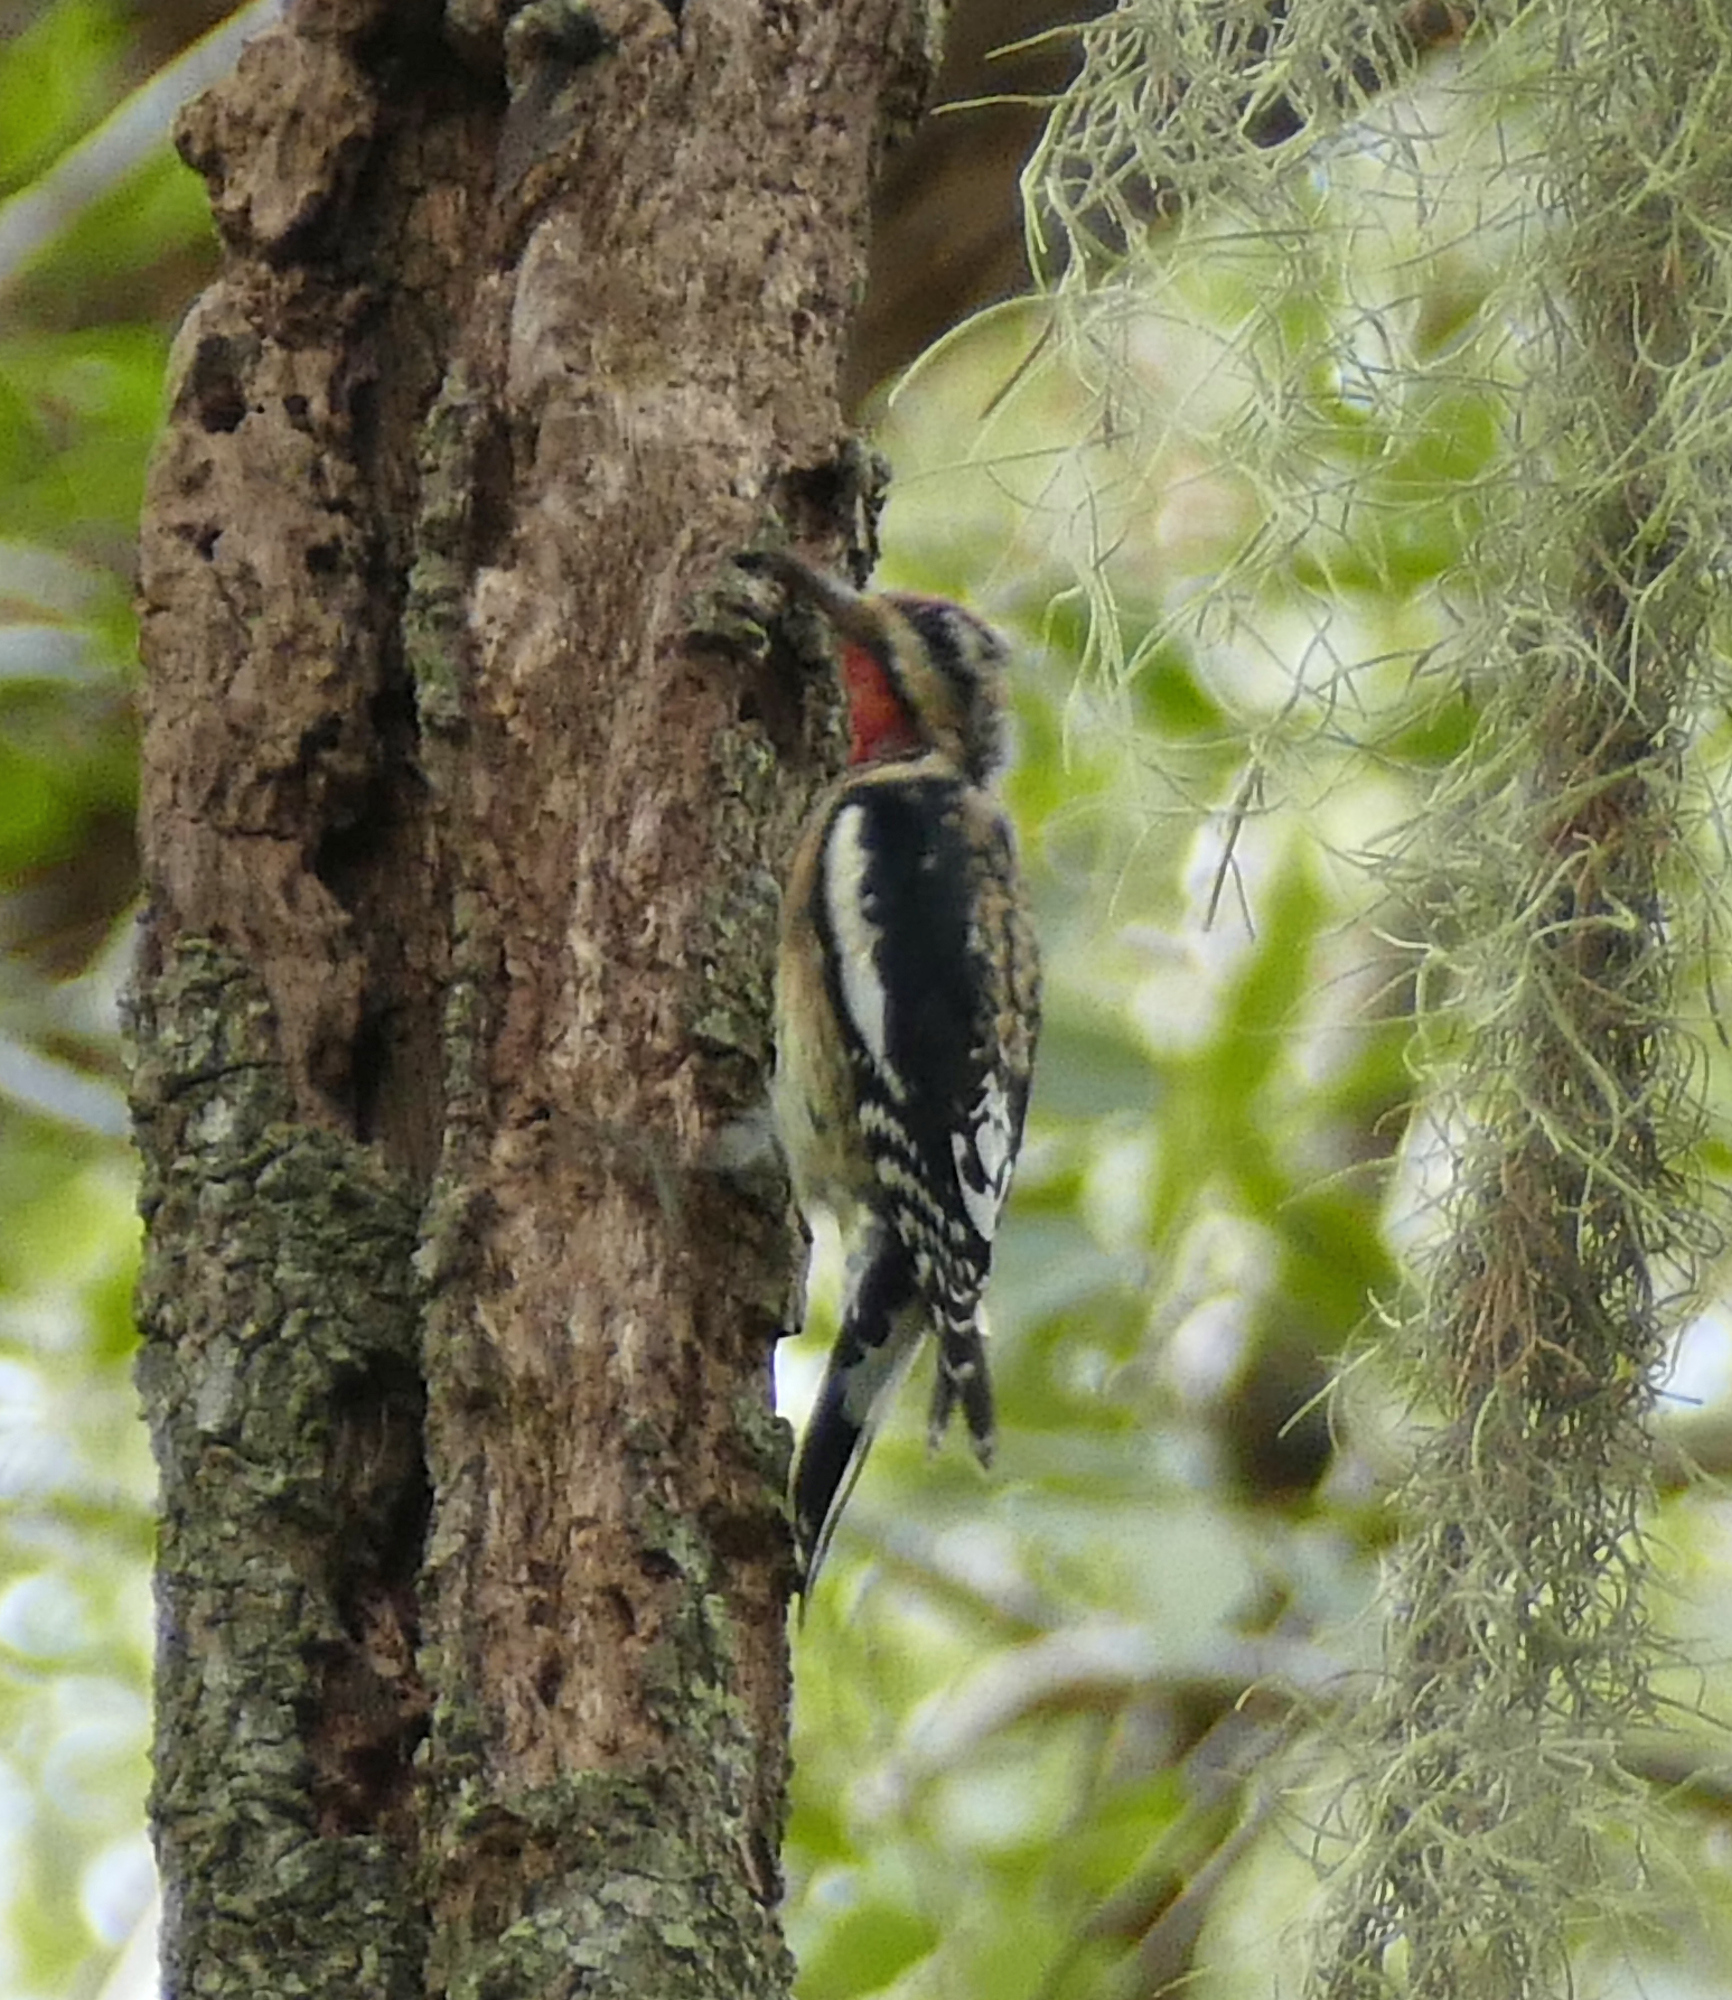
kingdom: Animalia
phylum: Chordata
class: Aves
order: Piciformes
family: Picidae
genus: Sphyrapicus
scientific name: Sphyrapicus varius
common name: Yellow-bellied sapsucker
